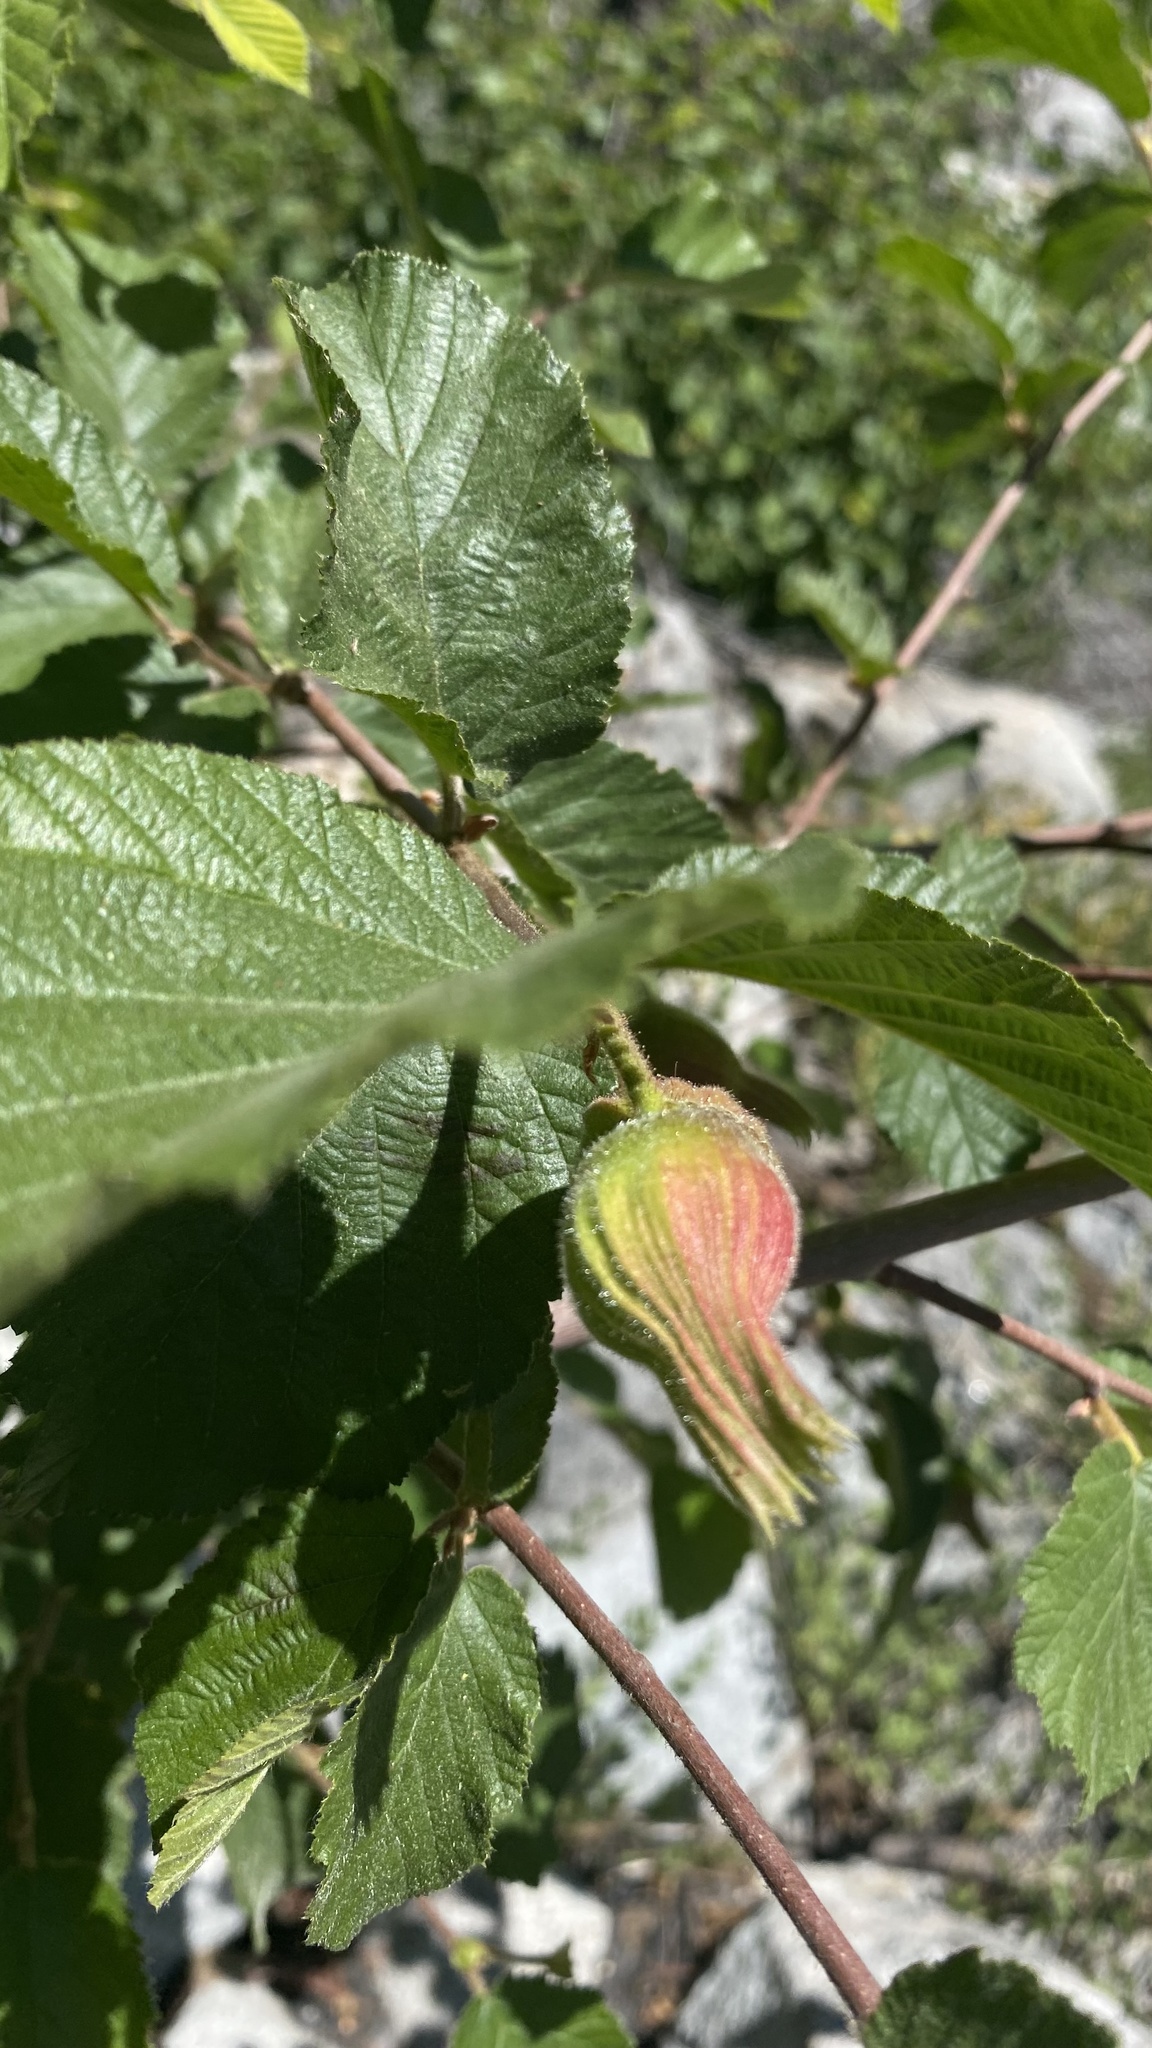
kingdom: Plantae
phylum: Tracheophyta
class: Magnoliopsida
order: Fagales
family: Betulaceae
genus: Corylus
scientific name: Corylus cornuta
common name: Beaked hazel
